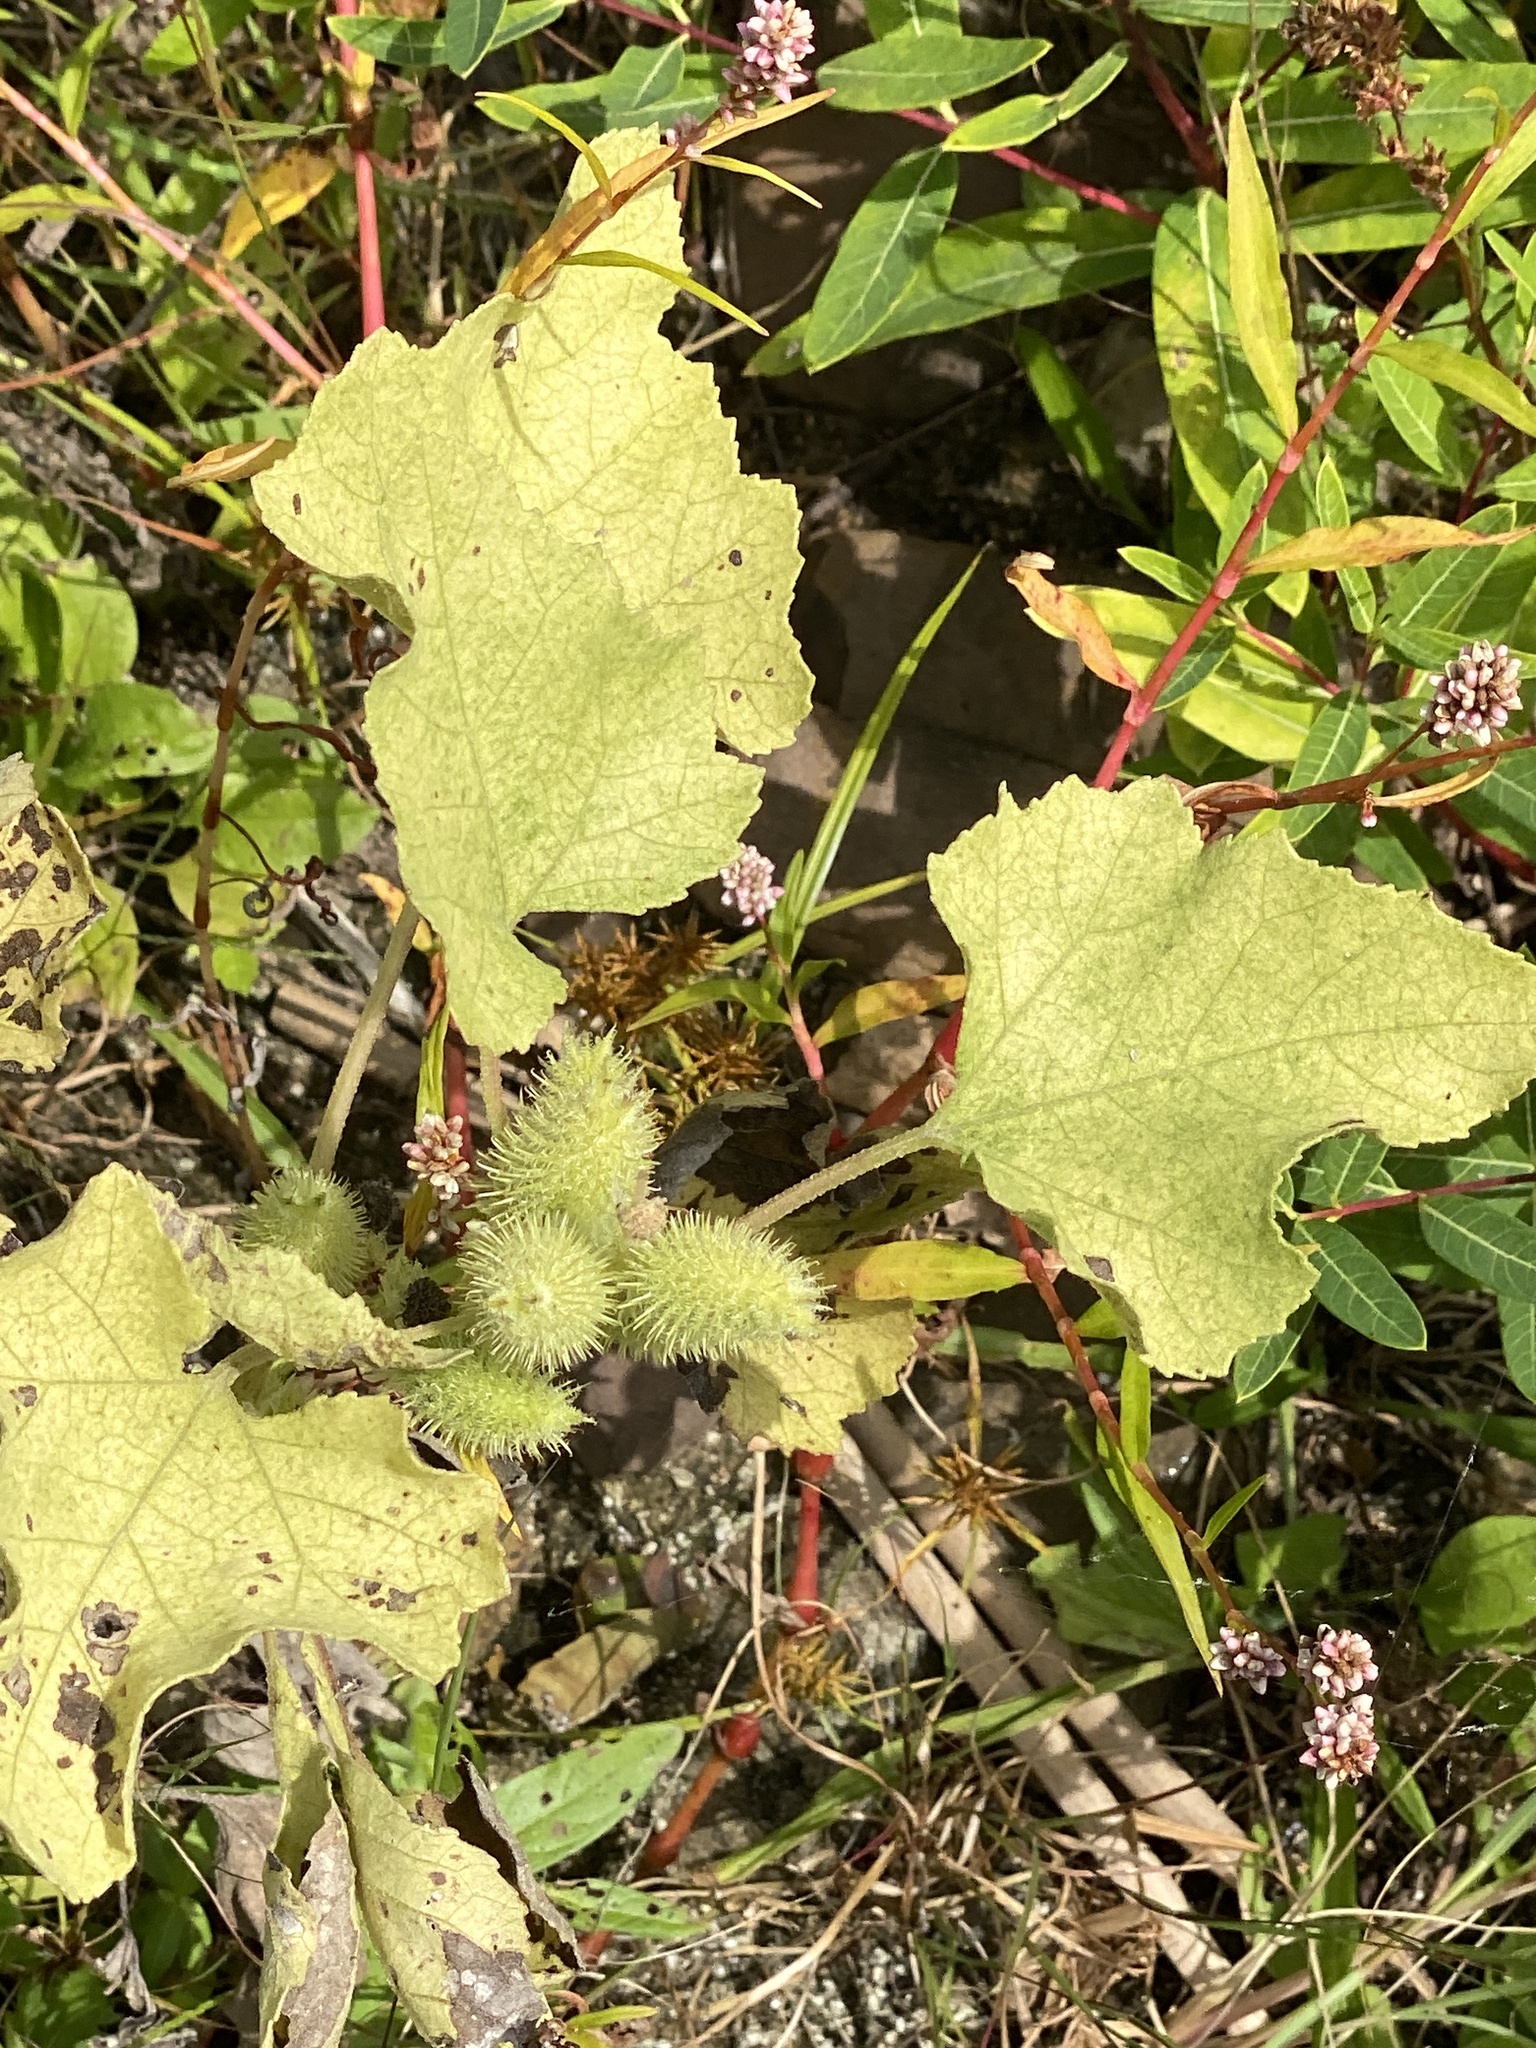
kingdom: Plantae
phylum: Tracheophyta
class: Magnoliopsida
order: Asterales
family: Asteraceae
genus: Xanthium
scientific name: Xanthium strumarium
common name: Rough cocklebur
